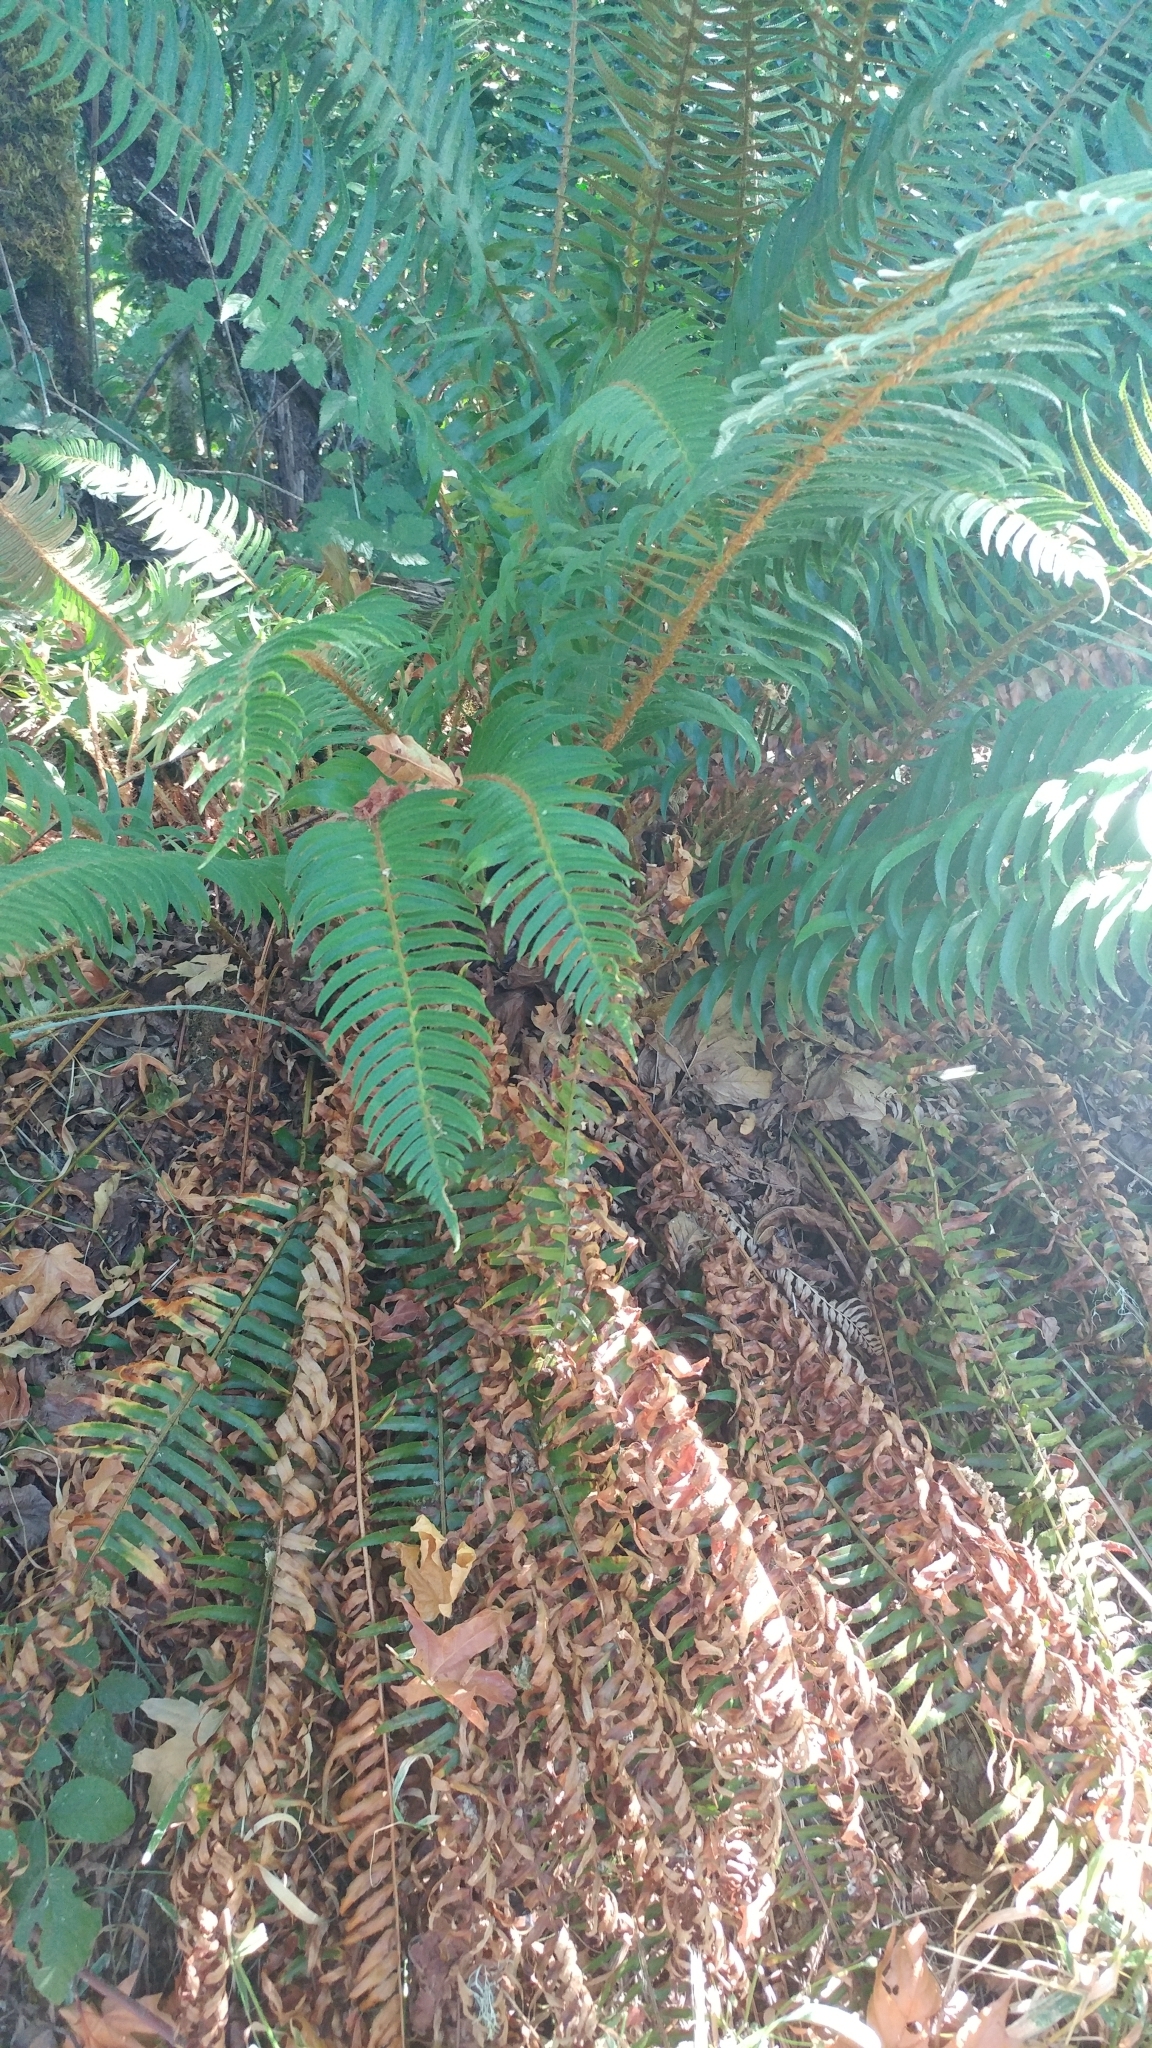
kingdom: Plantae
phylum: Tracheophyta
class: Polypodiopsida
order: Polypodiales
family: Dryopteridaceae
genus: Polystichum
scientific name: Polystichum munitum
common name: Western sword-fern
